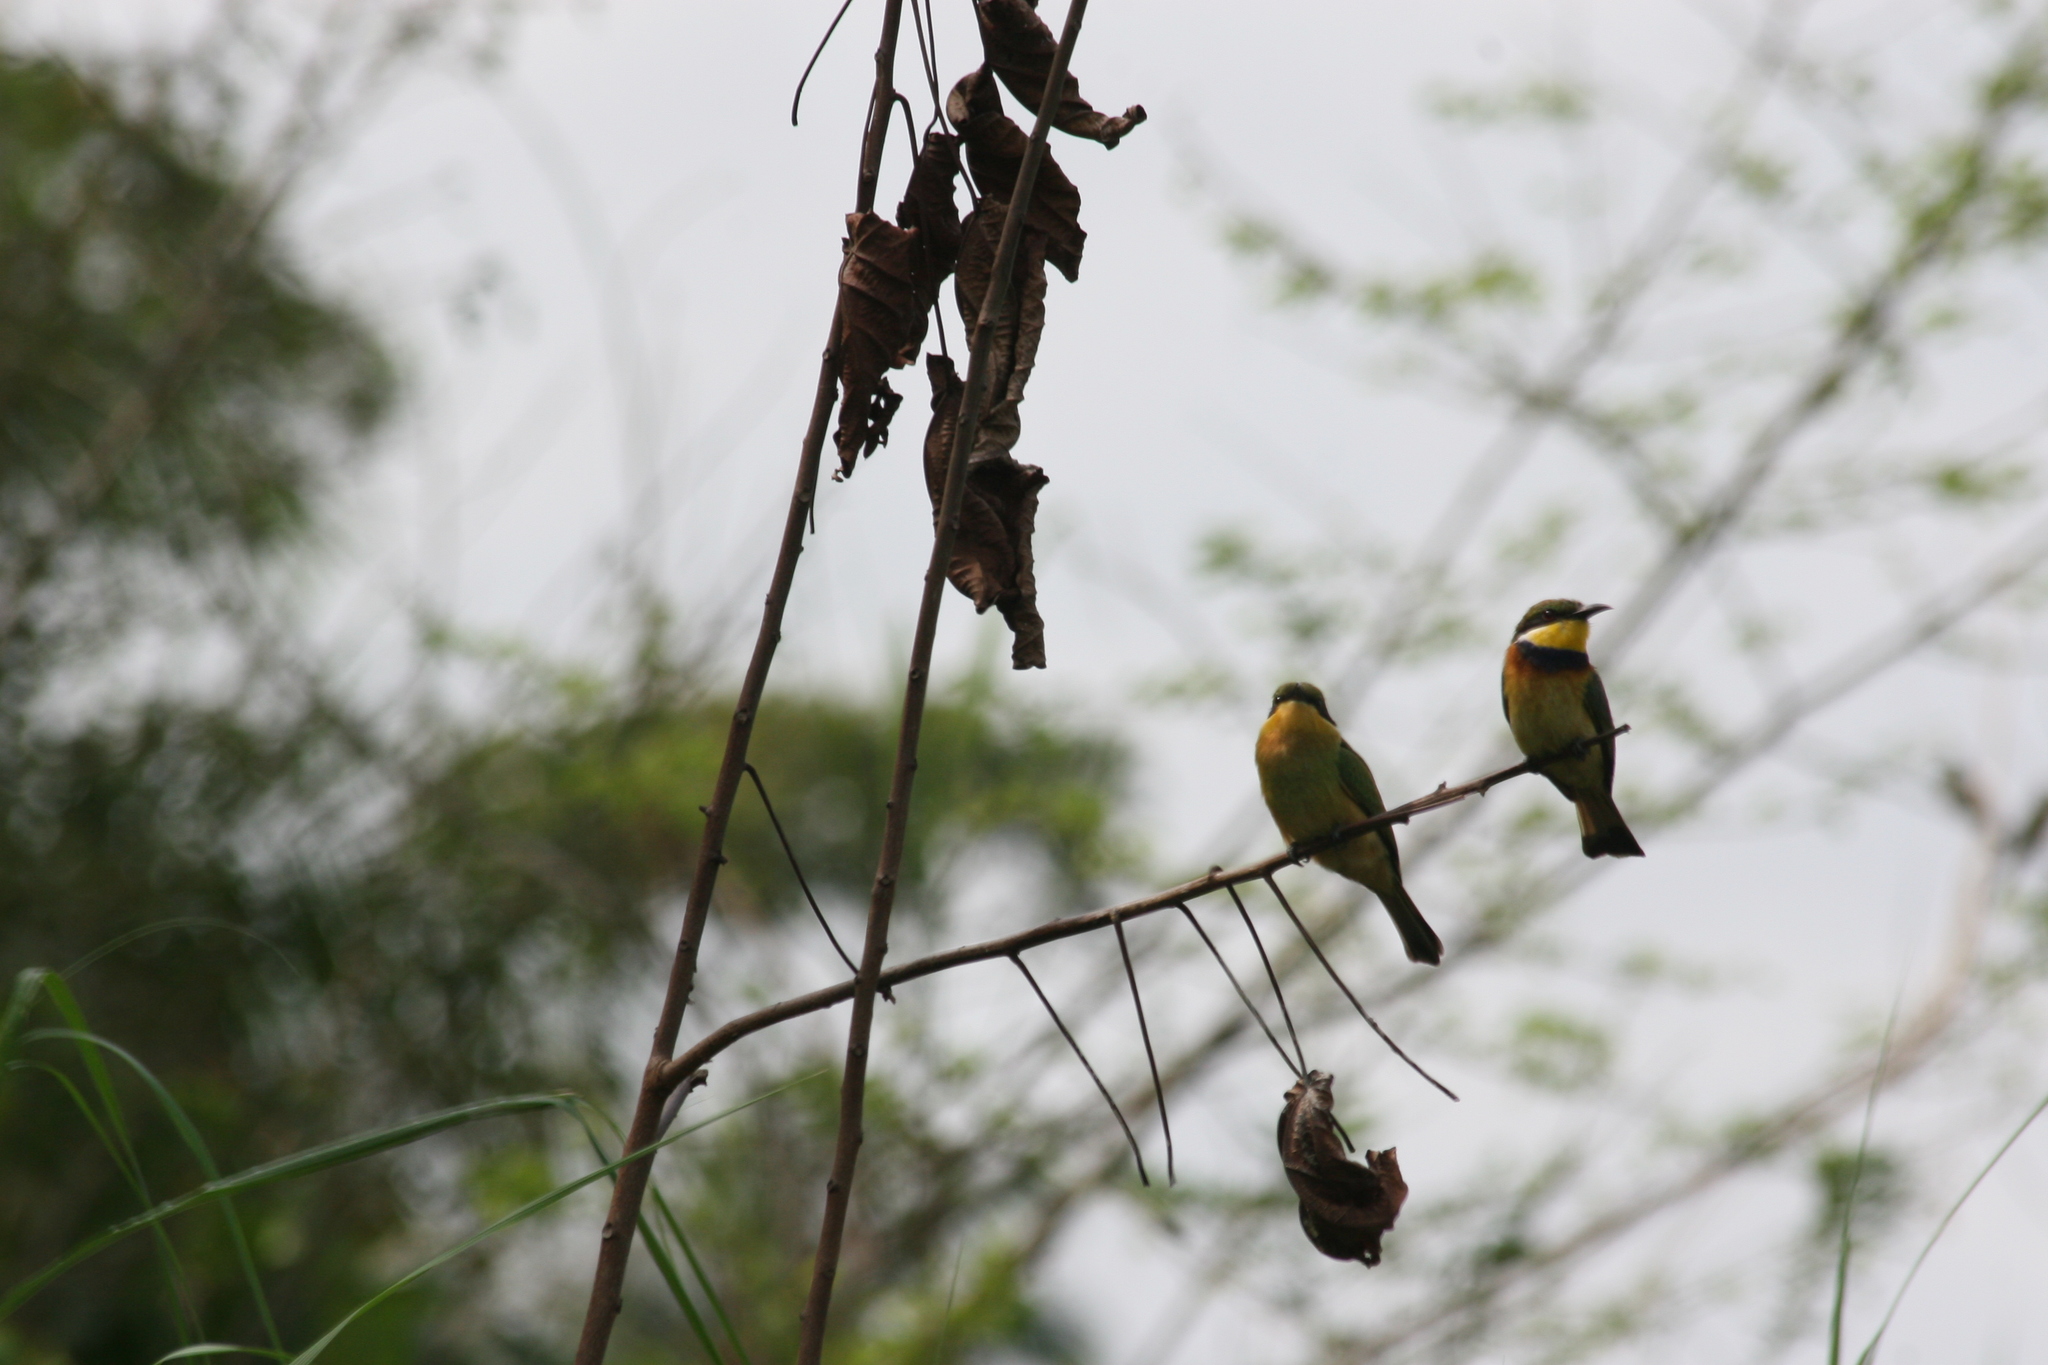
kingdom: Animalia
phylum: Chordata
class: Aves
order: Coraciiformes
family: Meropidae
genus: Merops
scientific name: Merops variegatus
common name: Blue-breasted bee-eater
